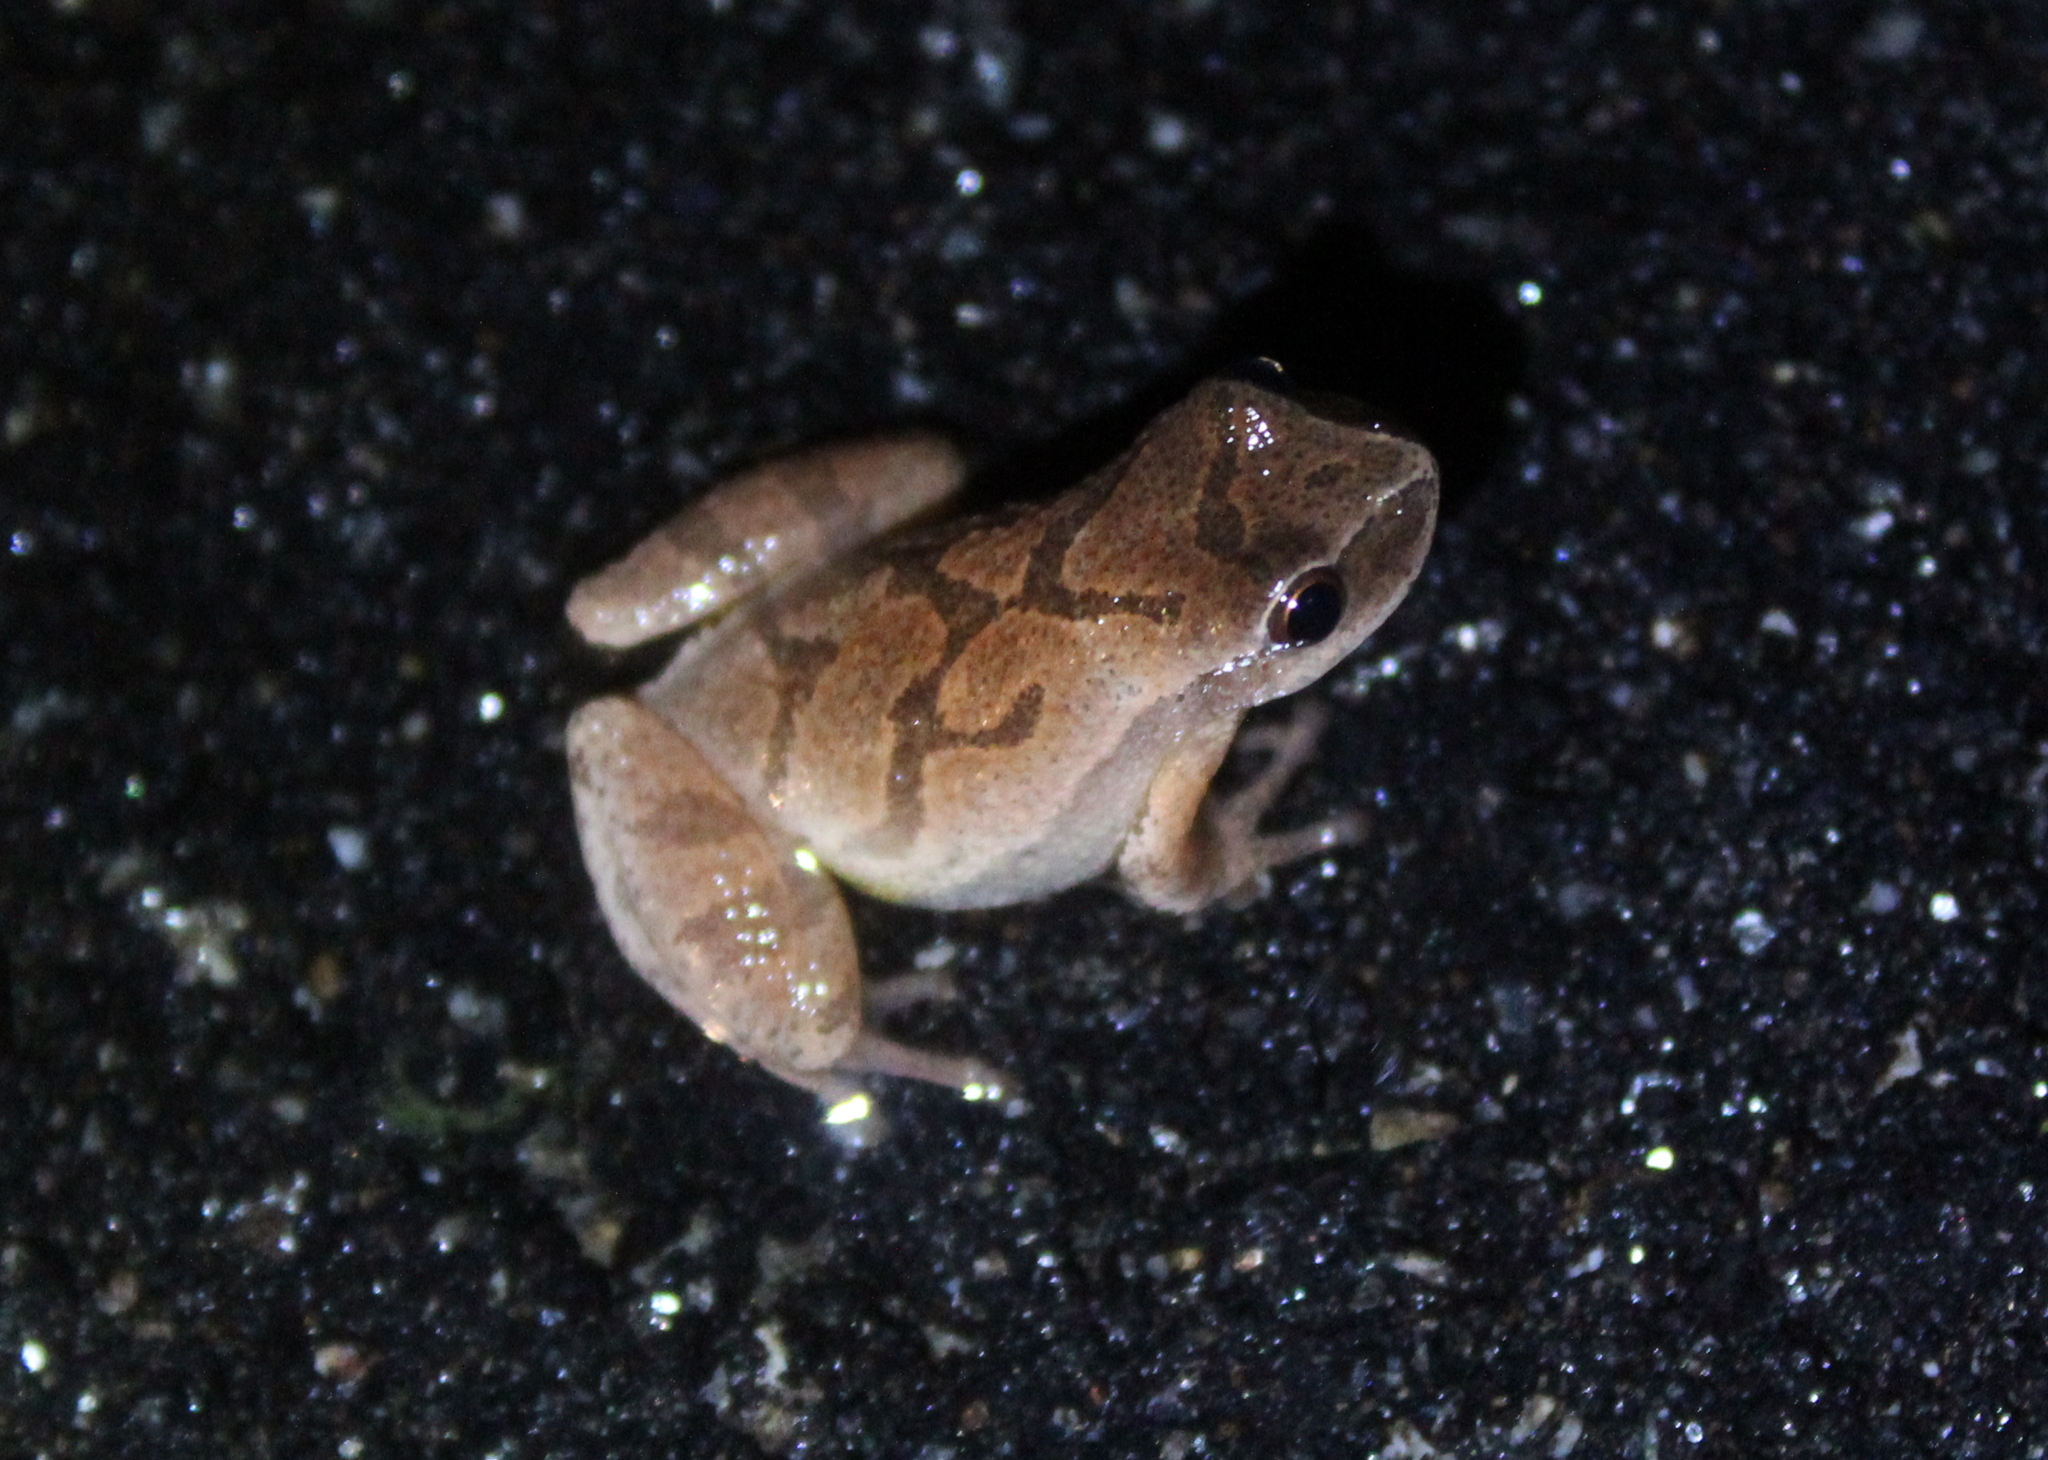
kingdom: Animalia
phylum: Chordata
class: Amphibia
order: Anura
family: Hylidae
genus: Pseudacris
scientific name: Pseudacris crucifer
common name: Spring peeper
